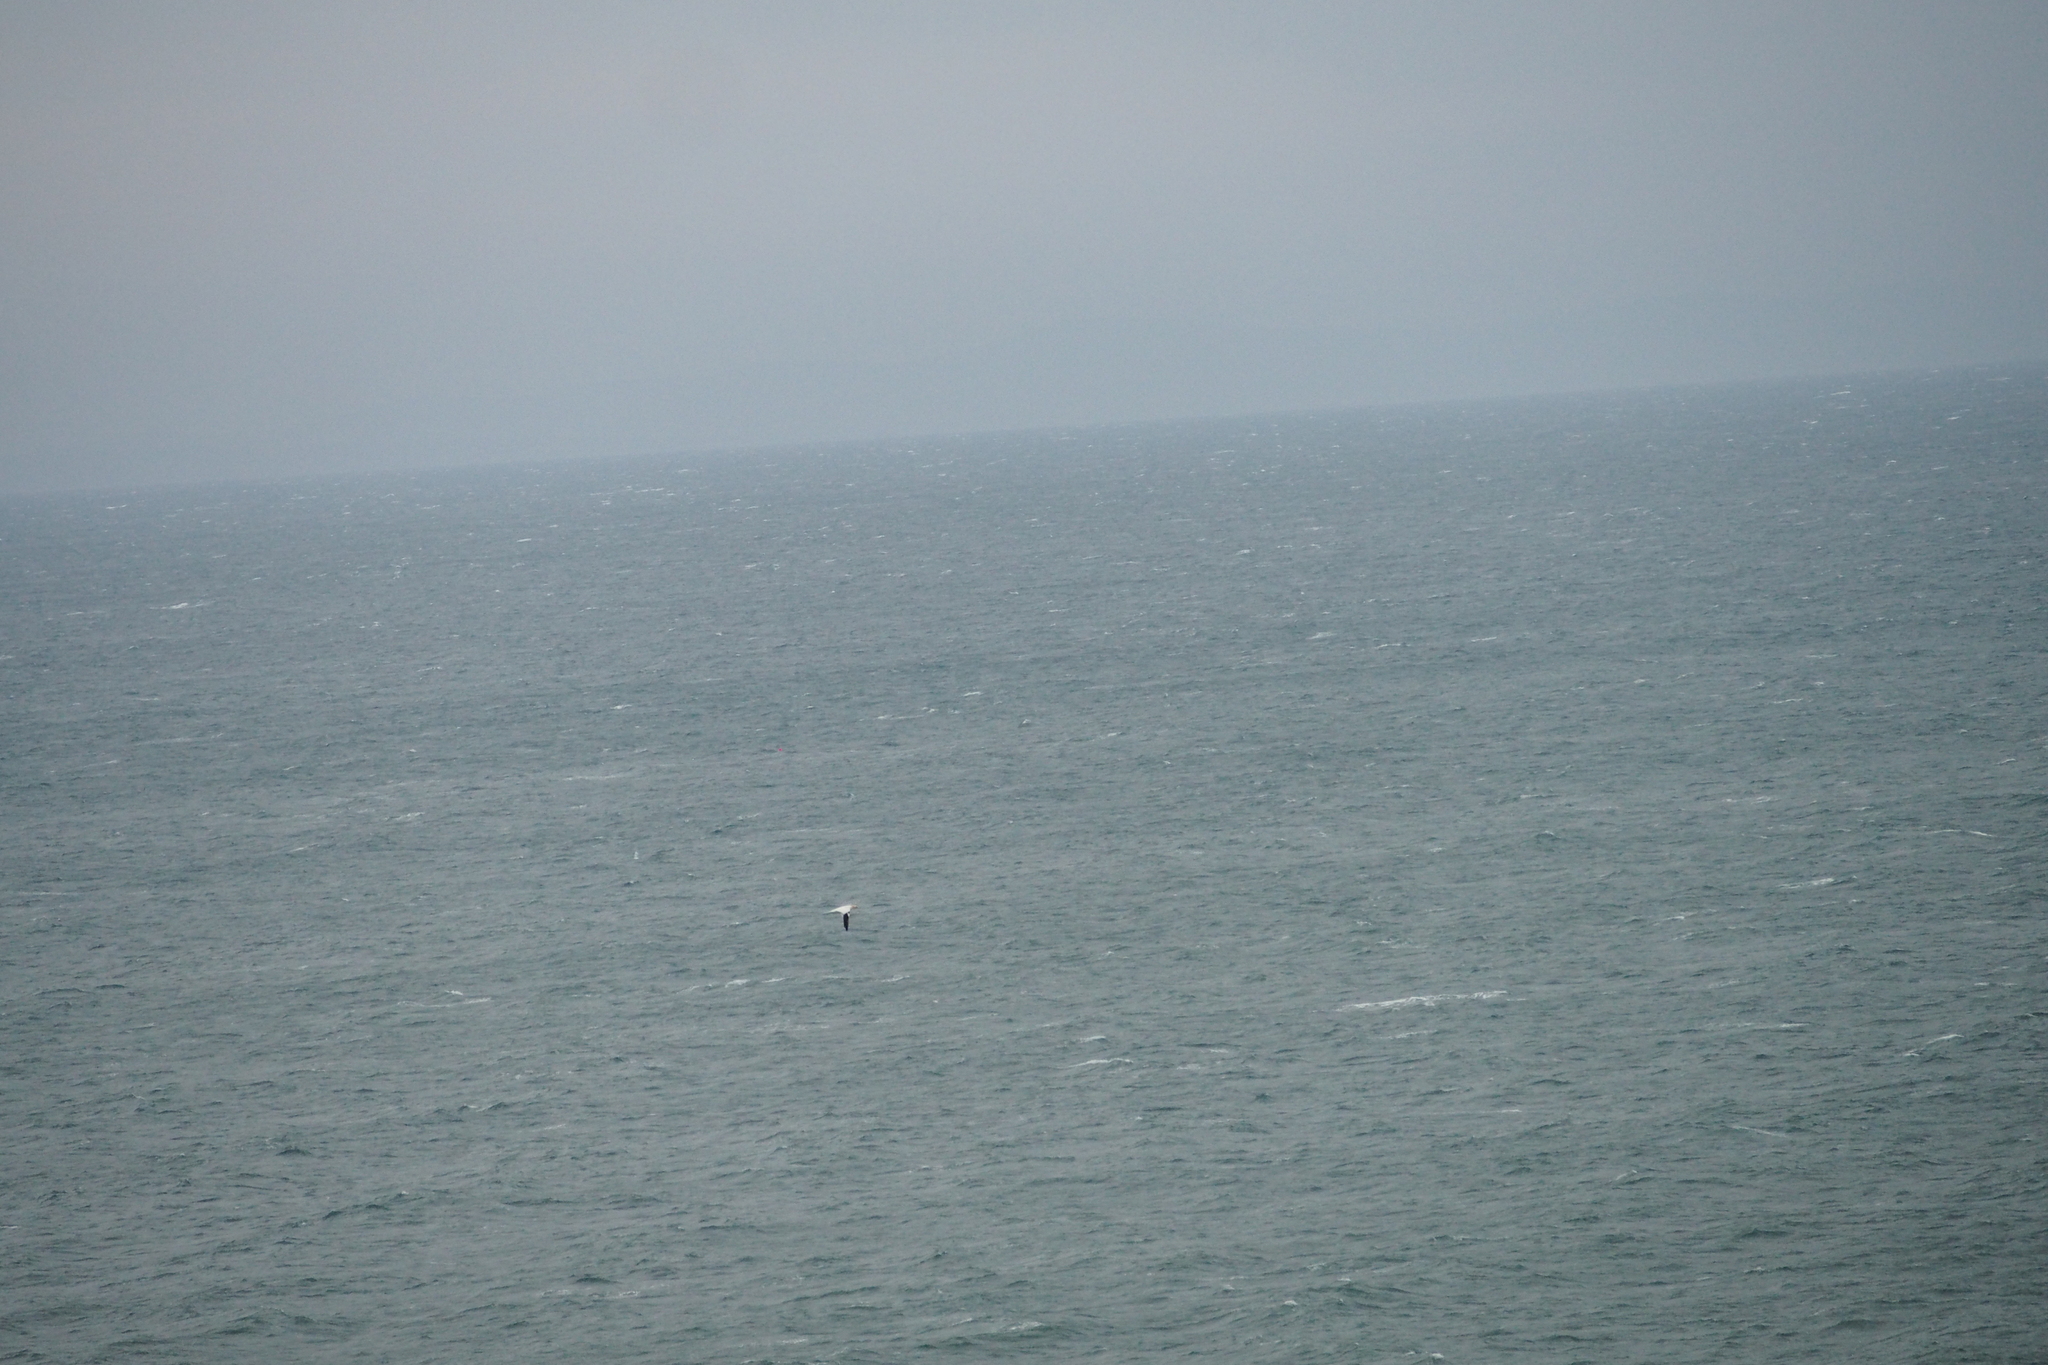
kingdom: Animalia
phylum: Chordata
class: Aves
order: Suliformes
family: Sulidae
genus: Morus
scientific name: Morus bassanus
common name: Northern gannet
